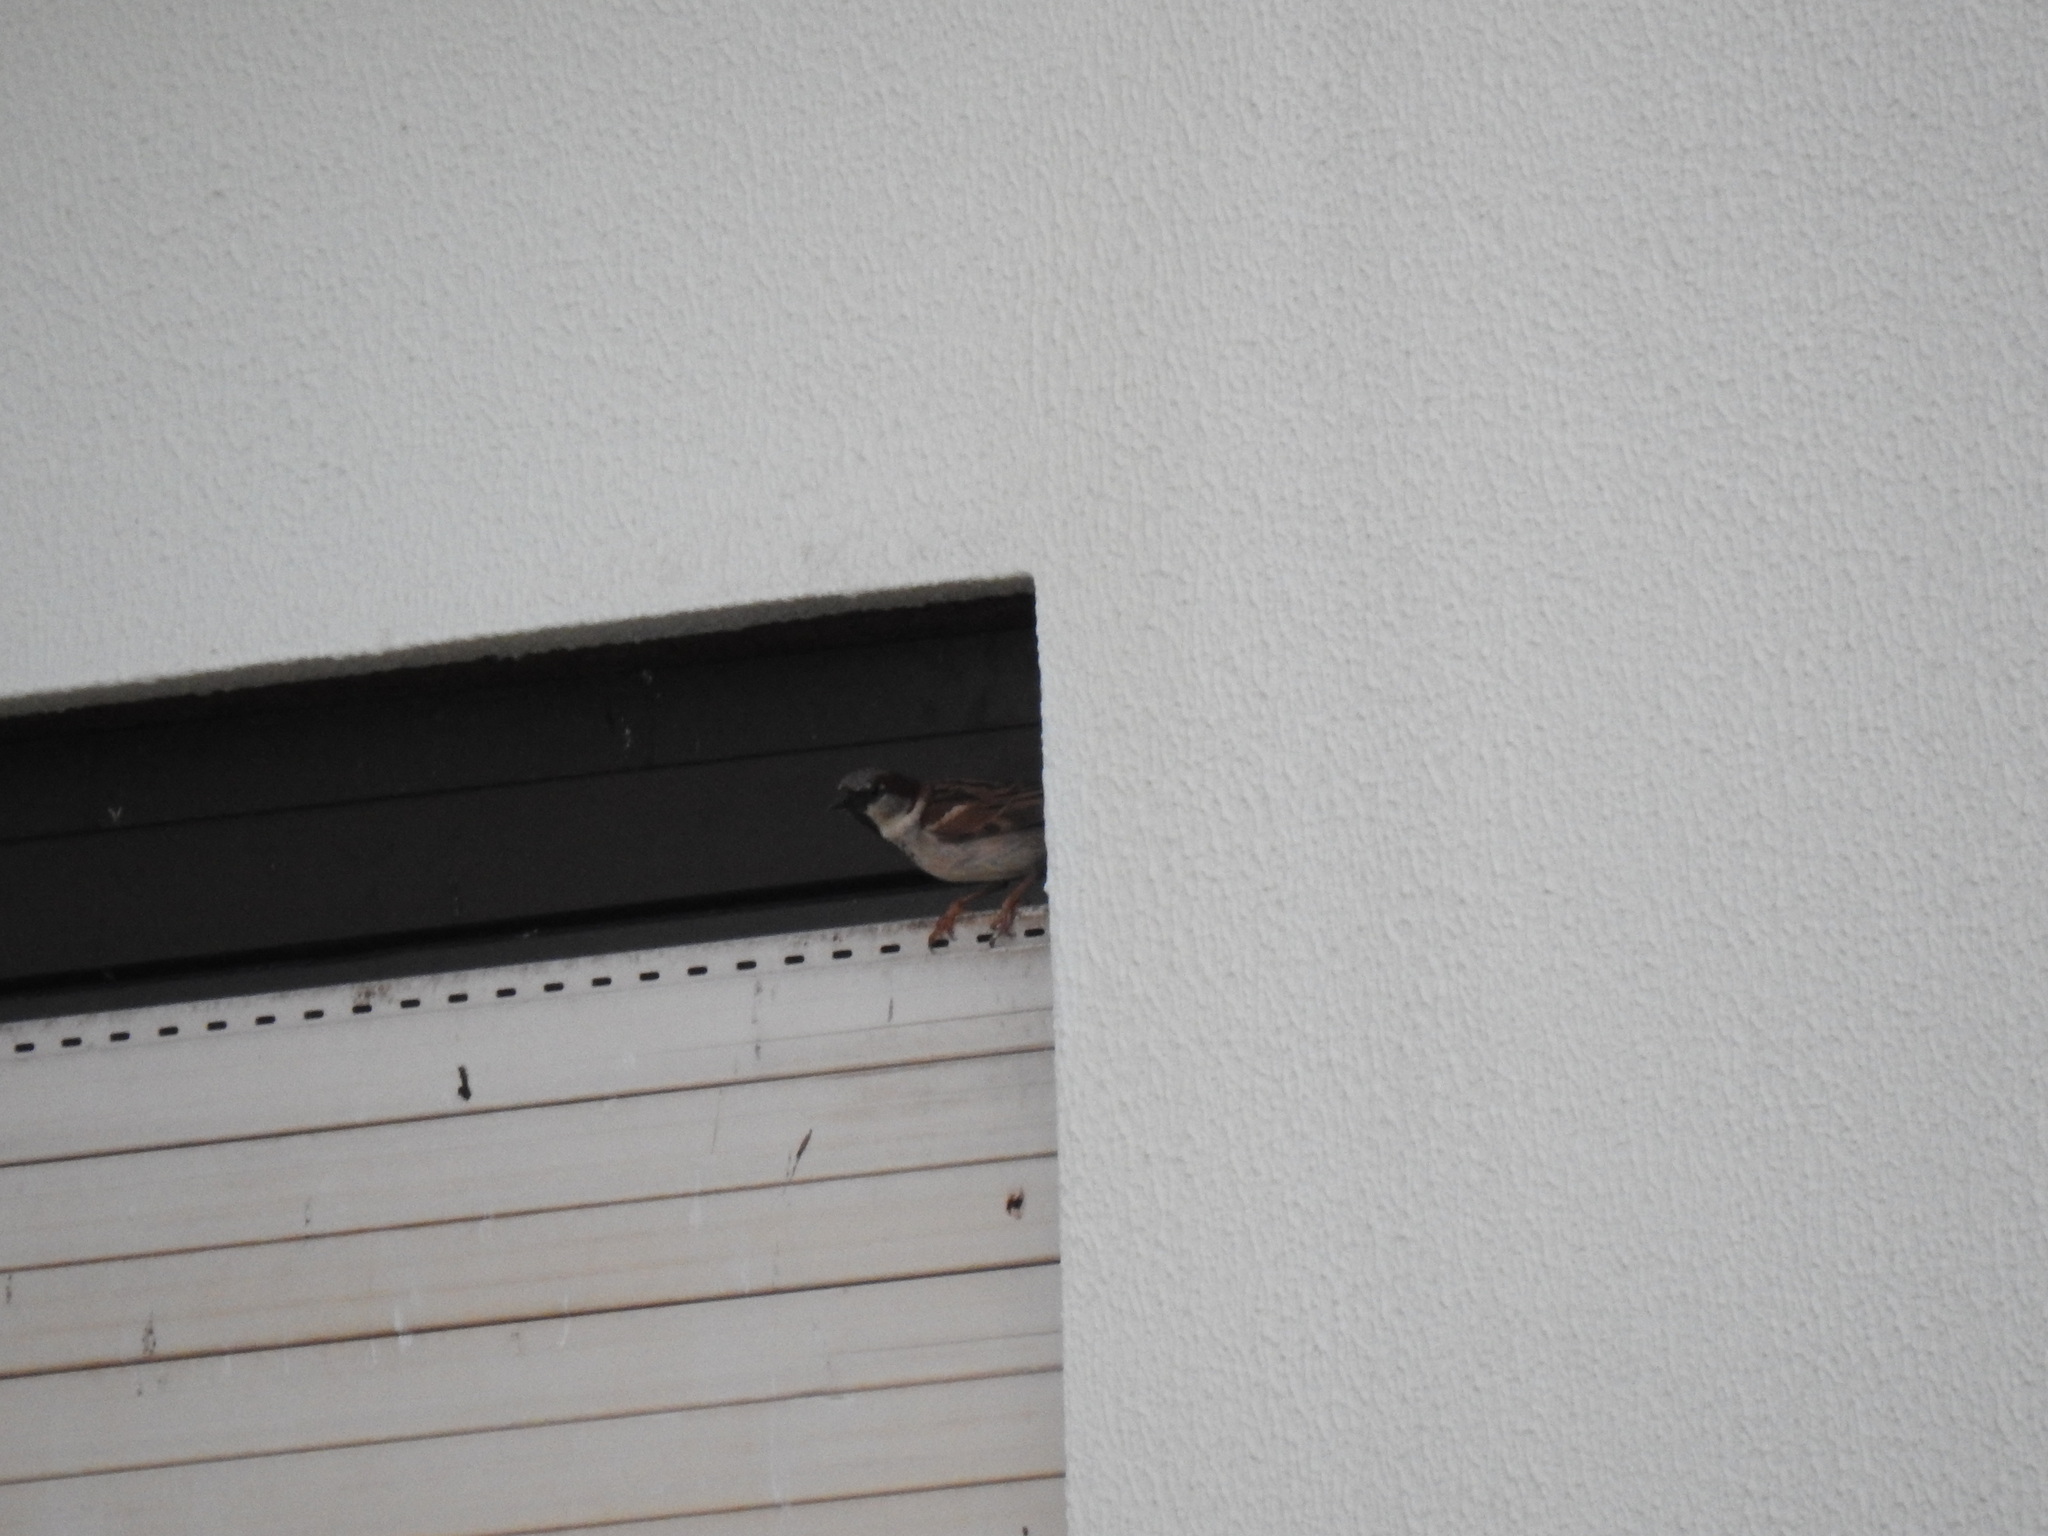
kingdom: Animalia
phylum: Chordata
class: Aves
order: Passeriformes
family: Passeridae
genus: Passer
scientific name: Passer domesticus
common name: House sparrow
